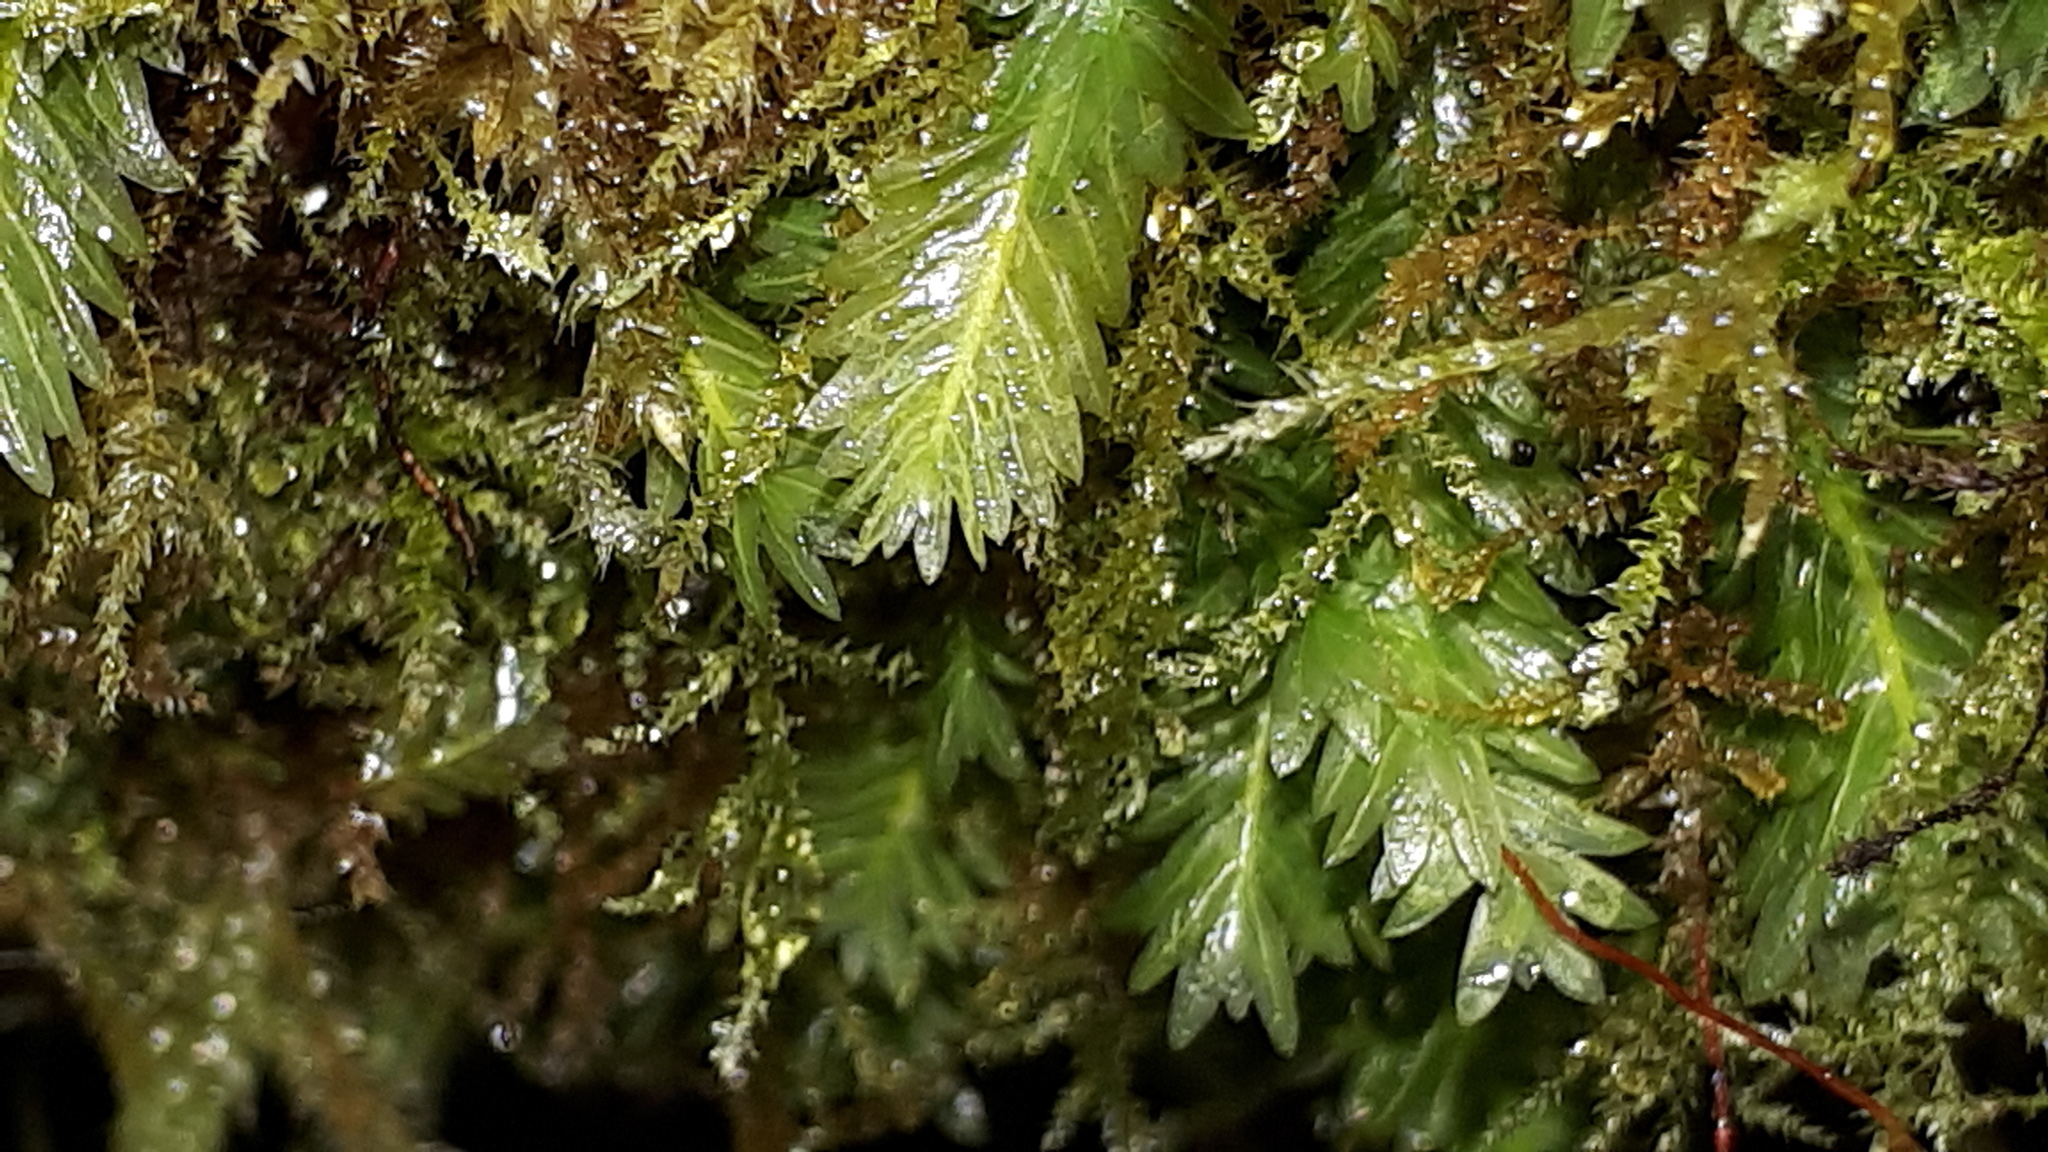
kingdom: Plantae
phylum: Bryophyta
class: Bryopsida
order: Dicranales
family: Fissidentaceae
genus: Fissidens
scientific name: Fissidens adianthoides
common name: Maidenhair pocket moss
